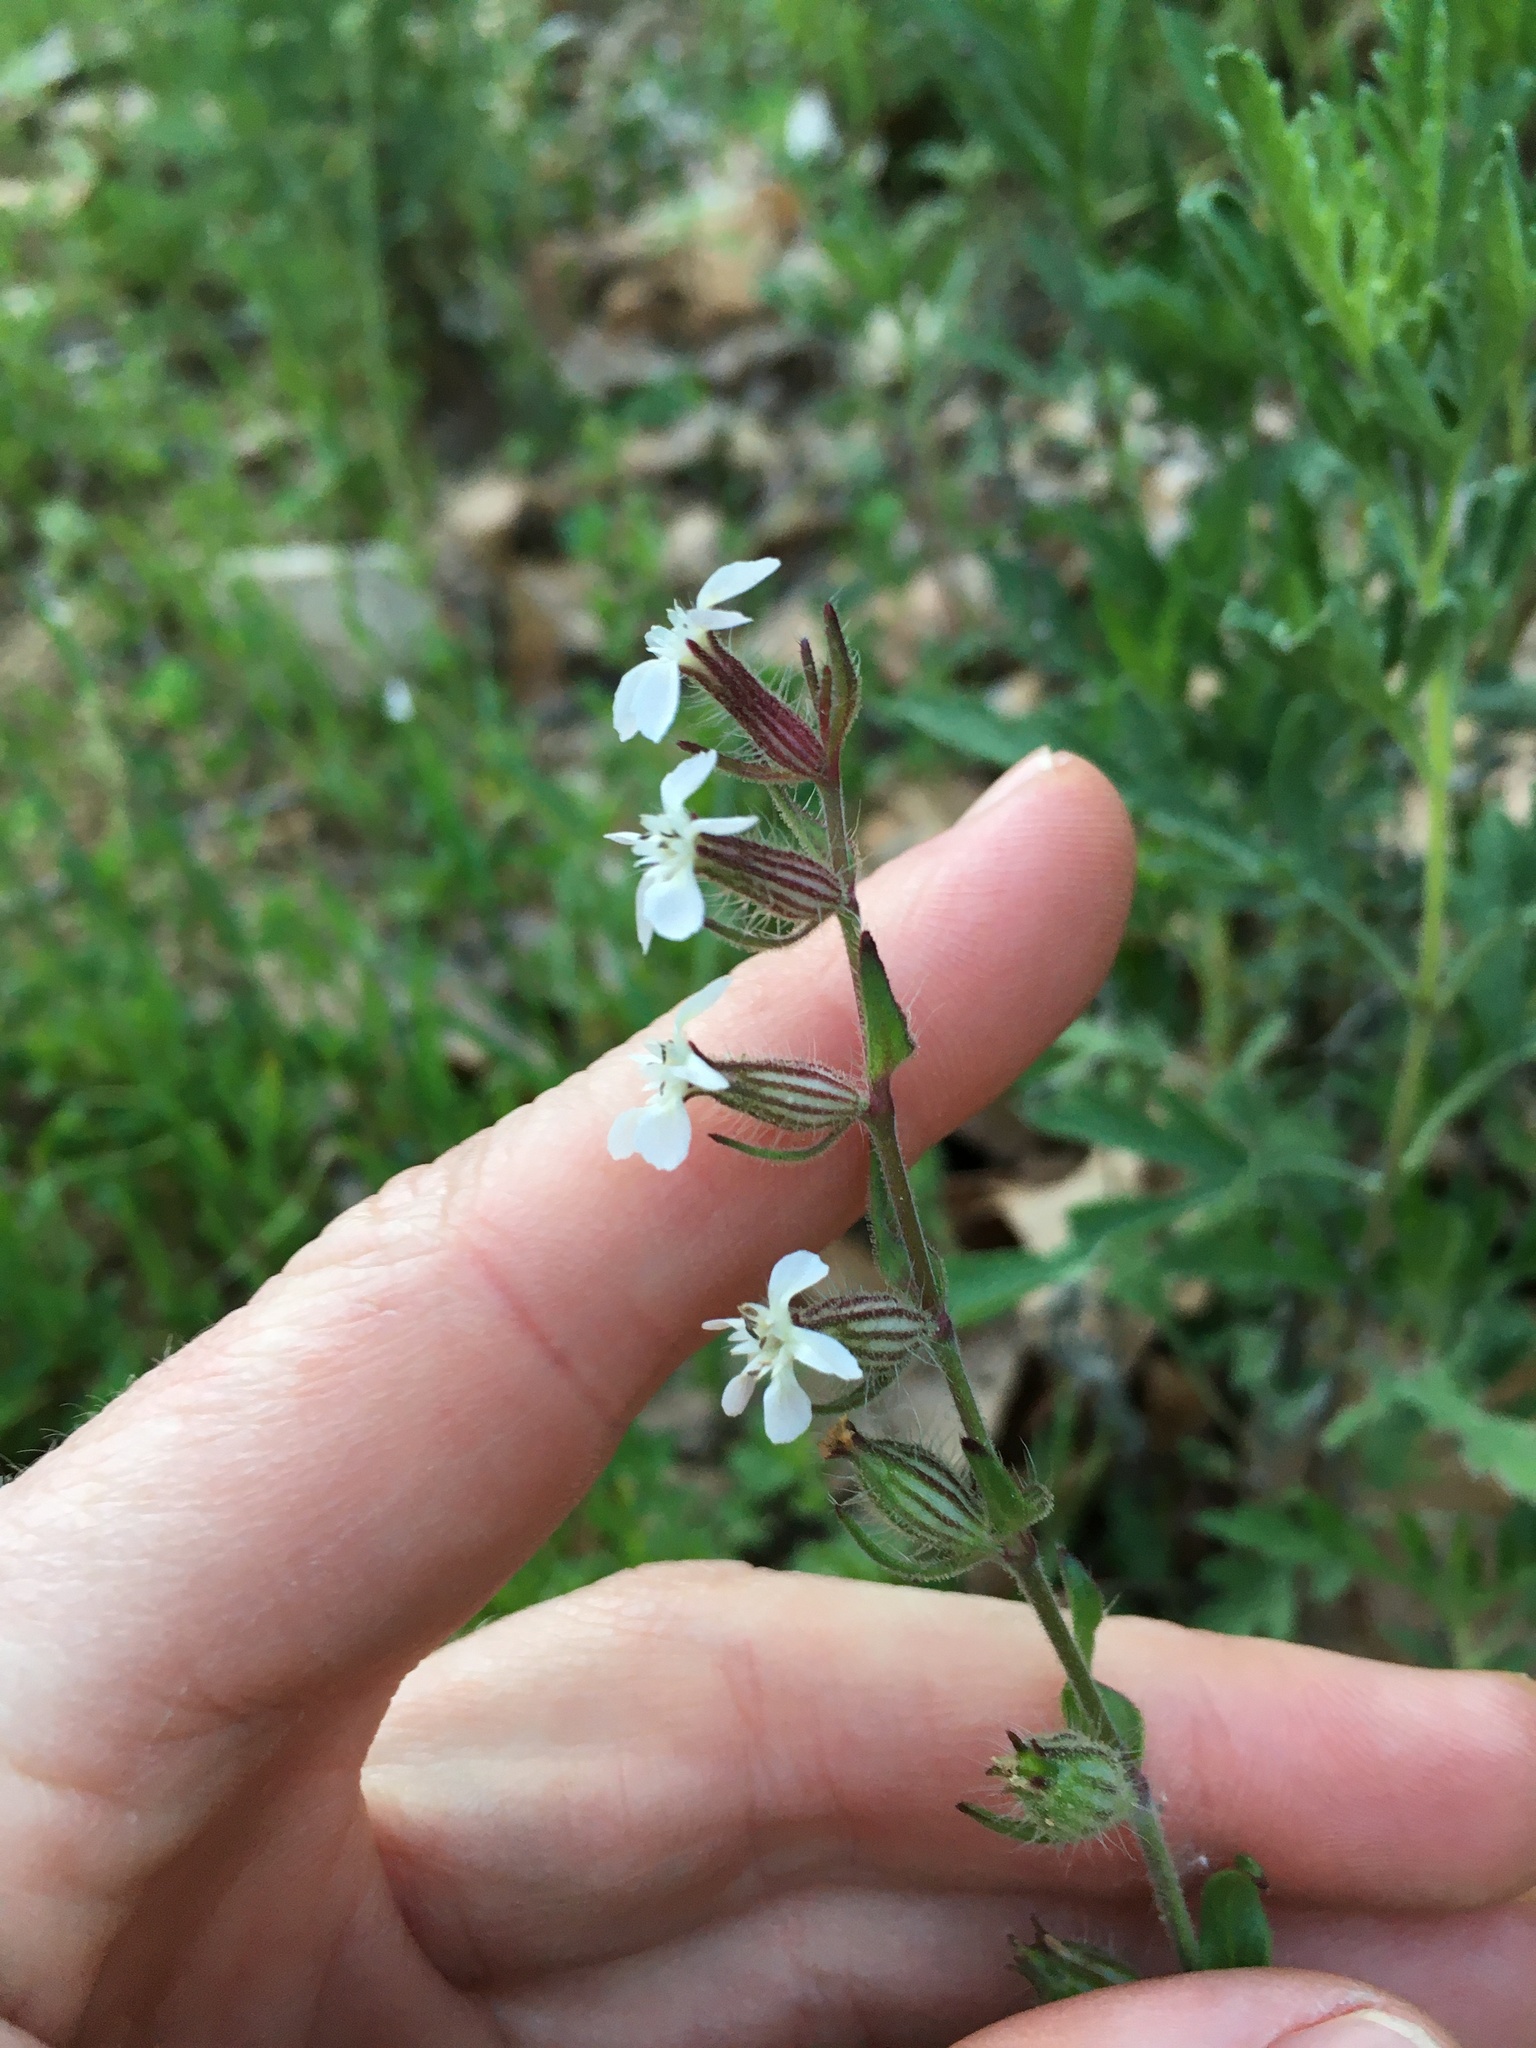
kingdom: Plantae
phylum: Tracheophyta
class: Magnoliopsida
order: Caryophyllales
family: Caryophyllaceae
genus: Silene
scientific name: Silene gallica
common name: Small-flowered catchfly
